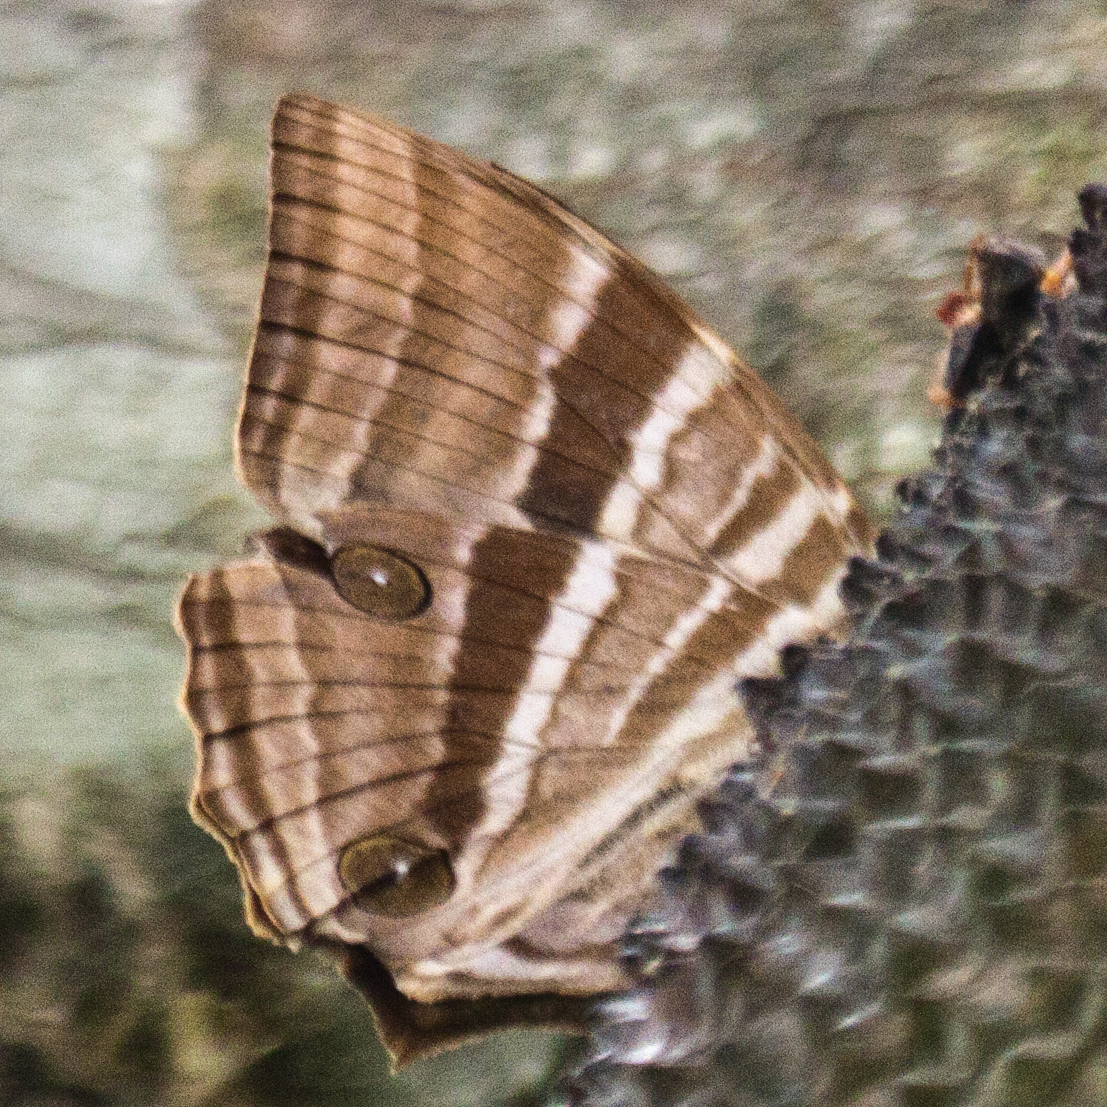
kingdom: Animalia
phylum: Arthropoda
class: Insecta
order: Lepidoptera
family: Nymphalidae
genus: Amathusia
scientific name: Amathusia phidippus
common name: Palm king
